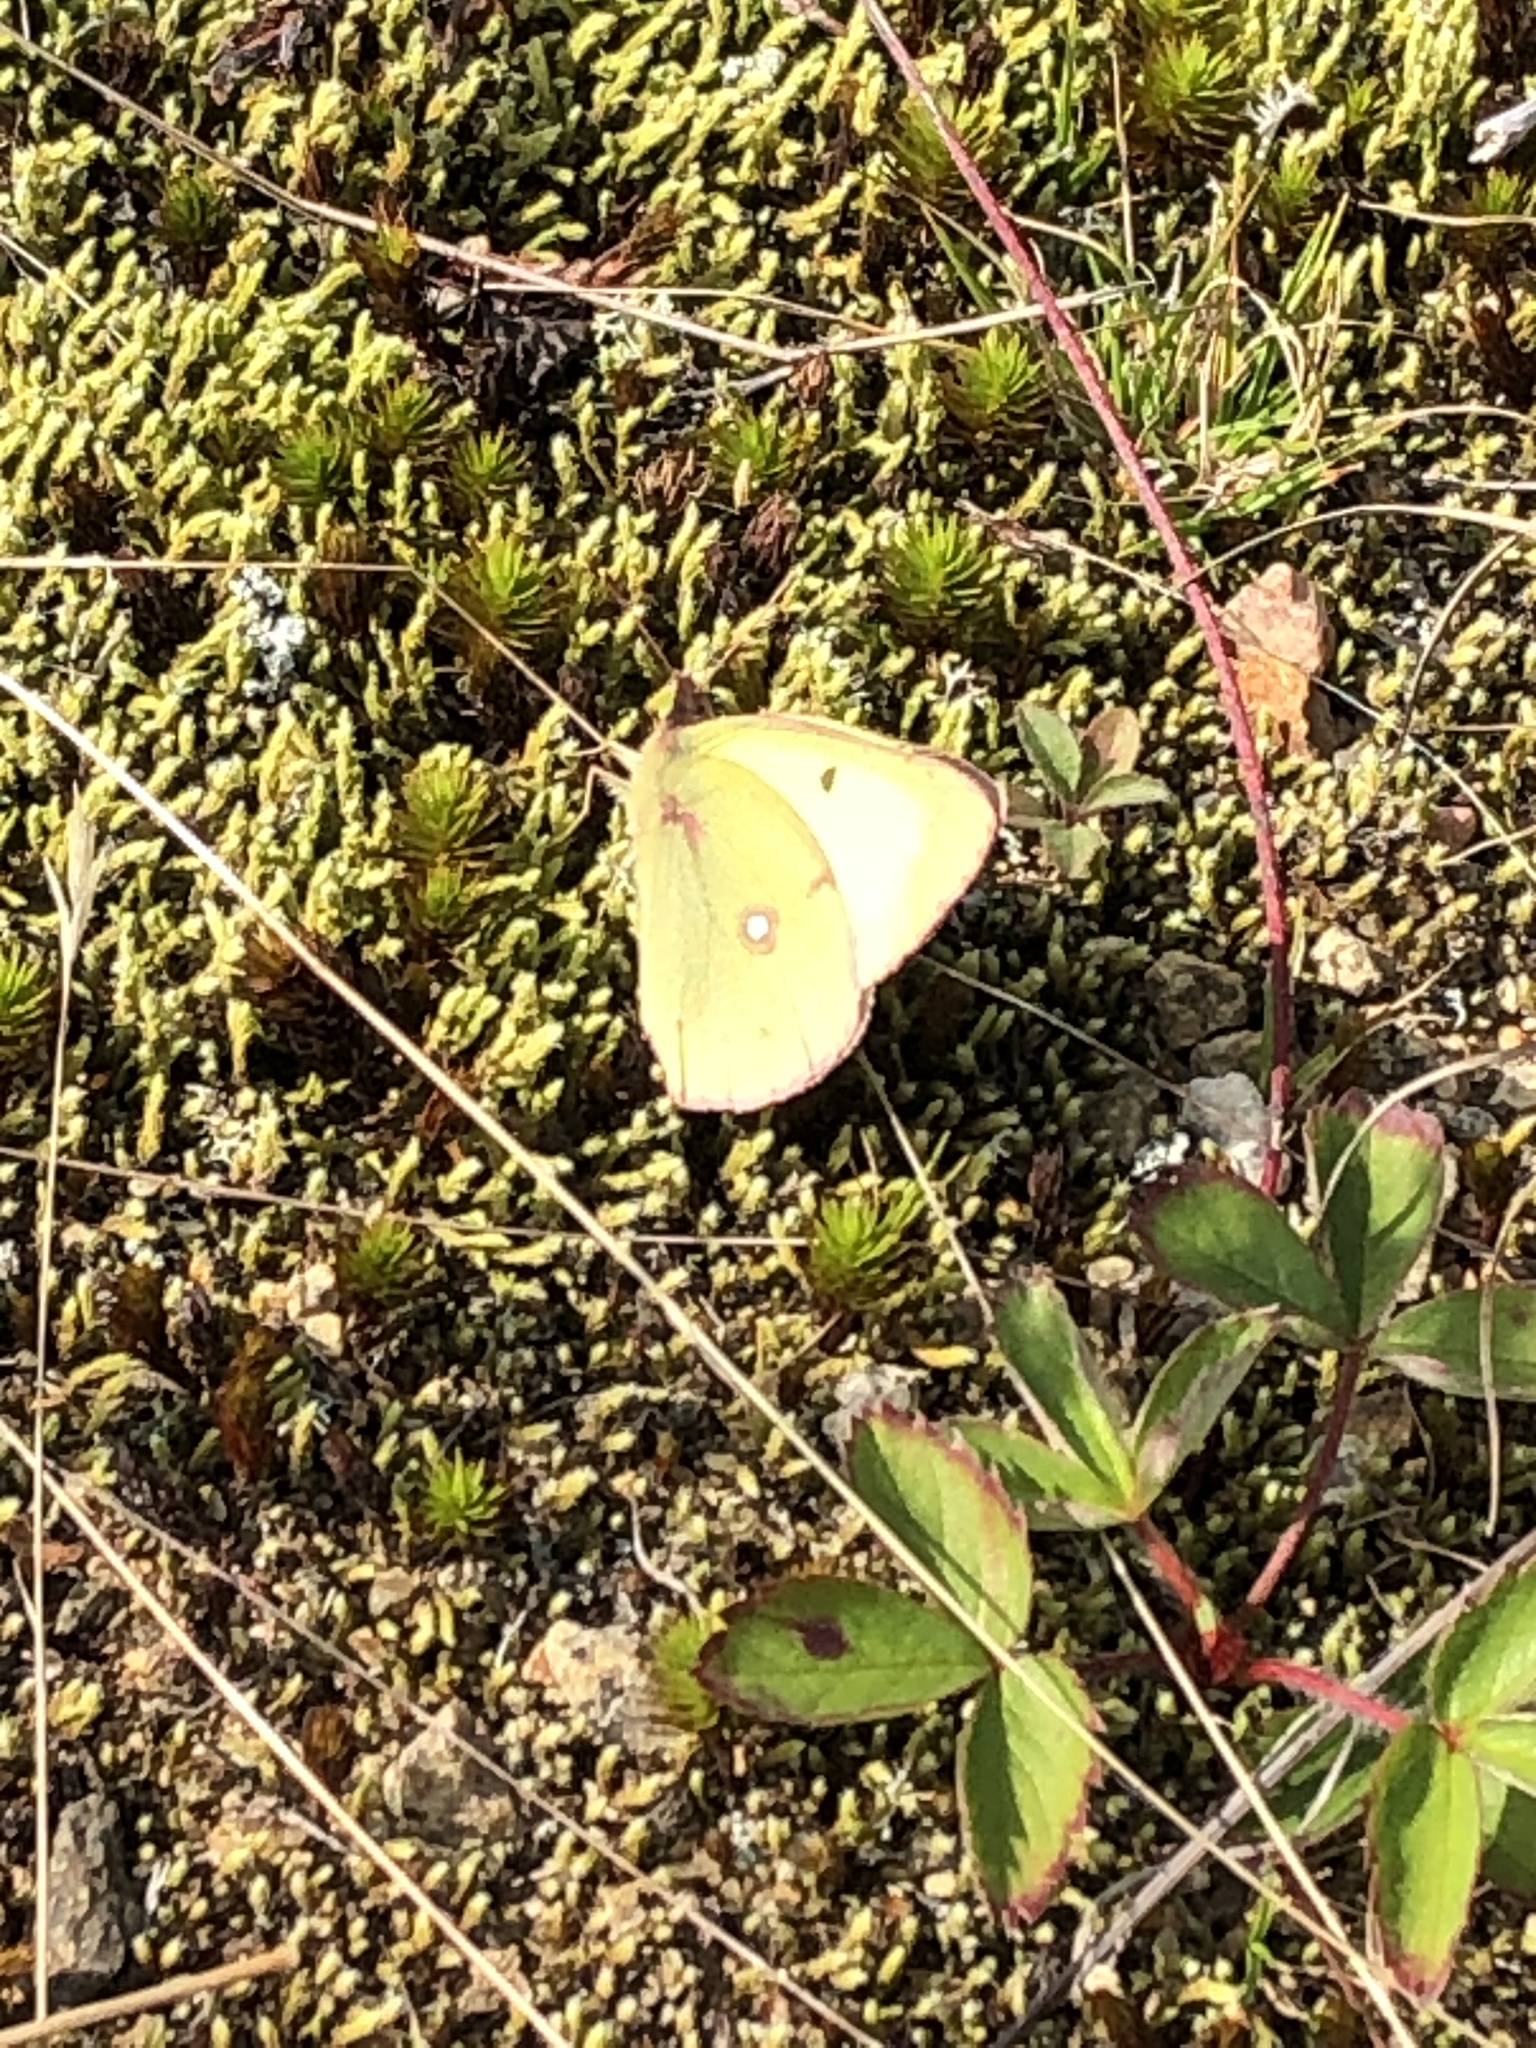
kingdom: Animalia
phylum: Arthropoda
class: Insecta
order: Lepidoptera
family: Pieridae
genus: Colias
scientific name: Colias philodice
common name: Clouded sulphur
